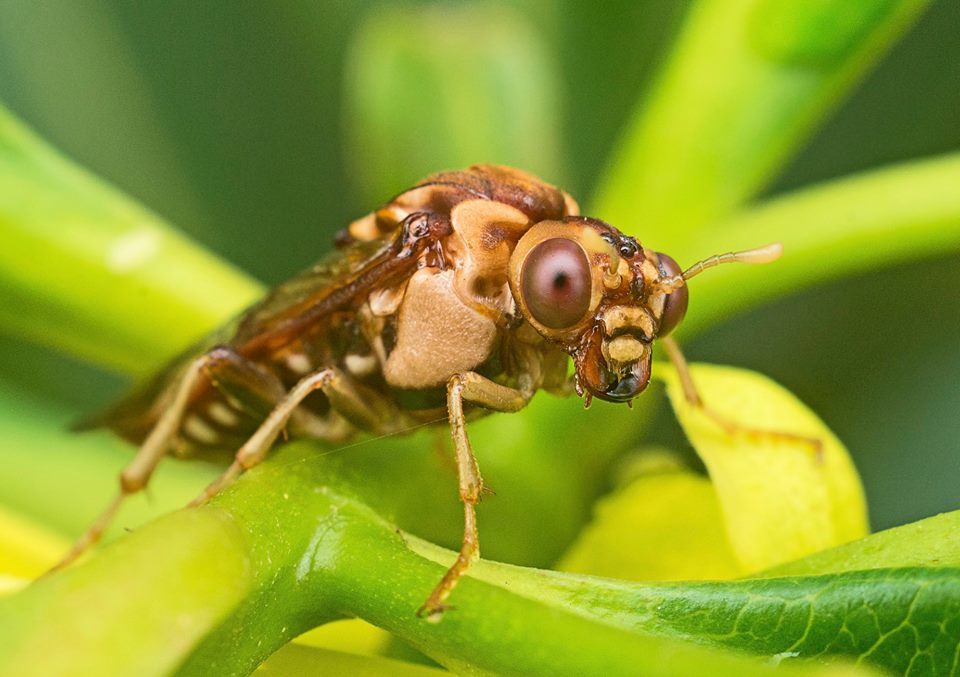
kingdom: Animalia
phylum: Arthropoda
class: Insecta
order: Hymenoptera
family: Pergidae
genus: Pergagrapta
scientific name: Pergagrapta polita
